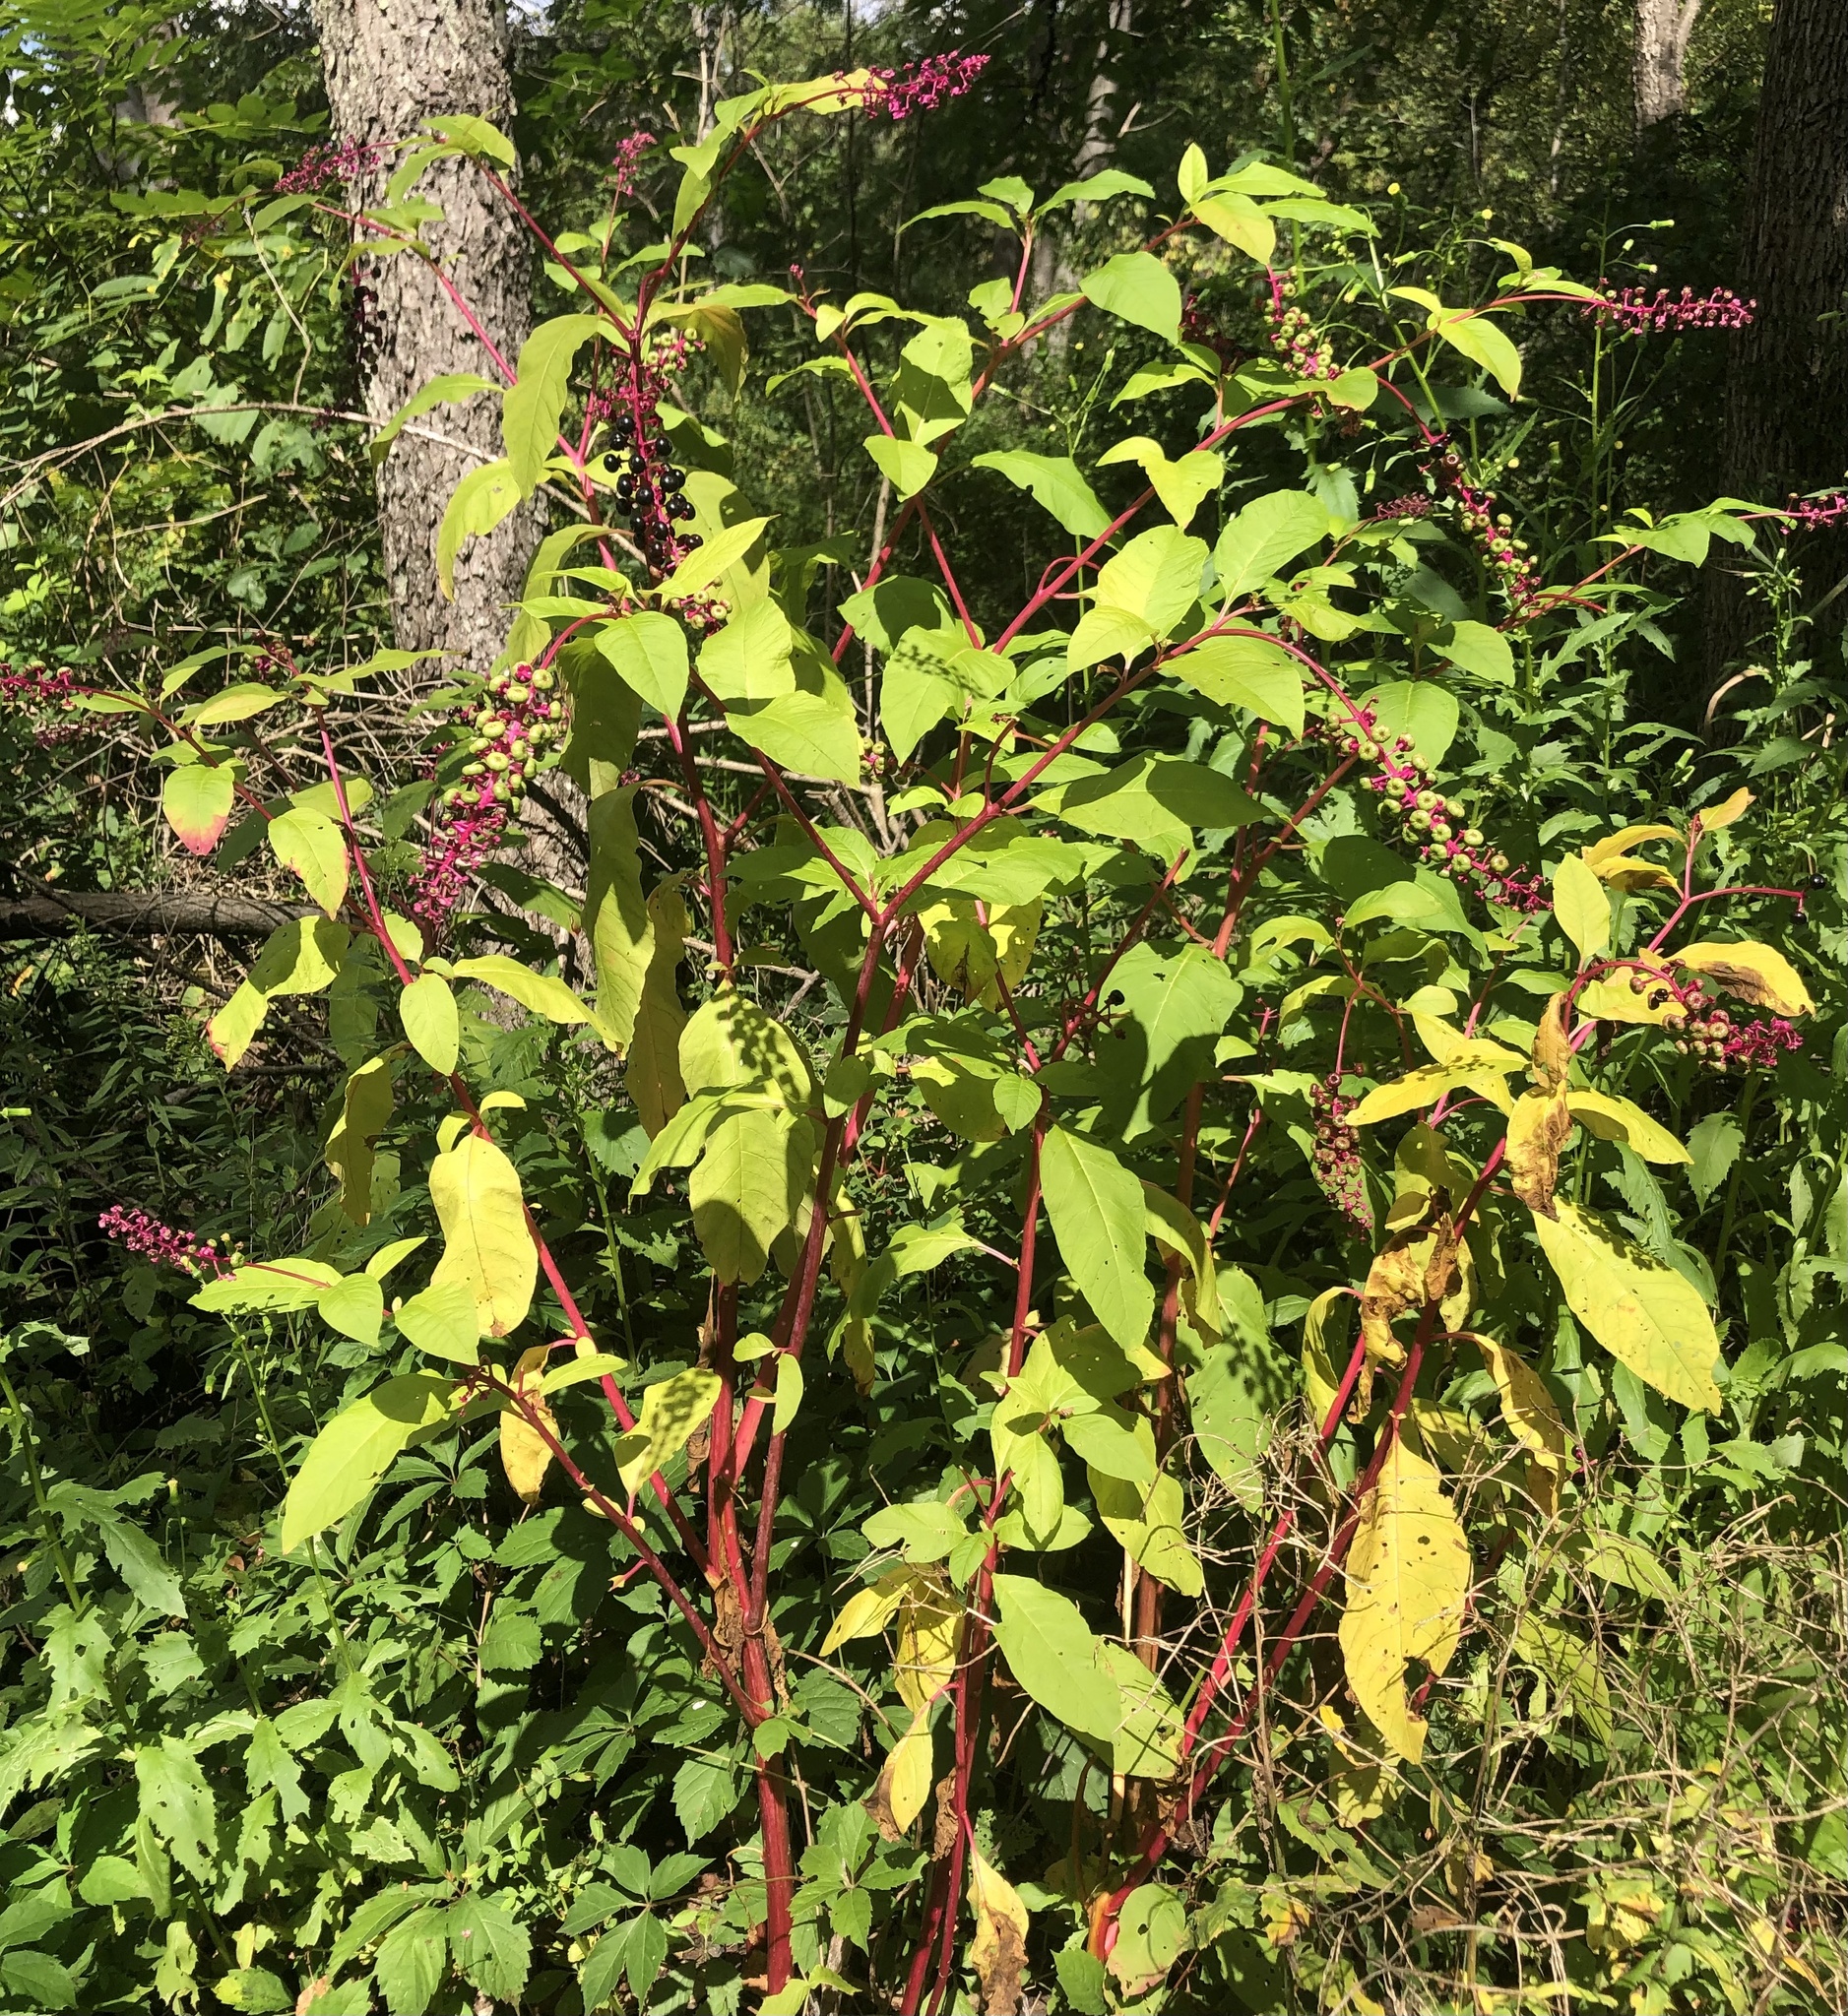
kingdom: Plantae
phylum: Tracheophyta
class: Magnoliopsida
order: Caryophyllales
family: Phytolaccaceae
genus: Phytolacca
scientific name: Phytolacca americana
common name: American pokeweed
